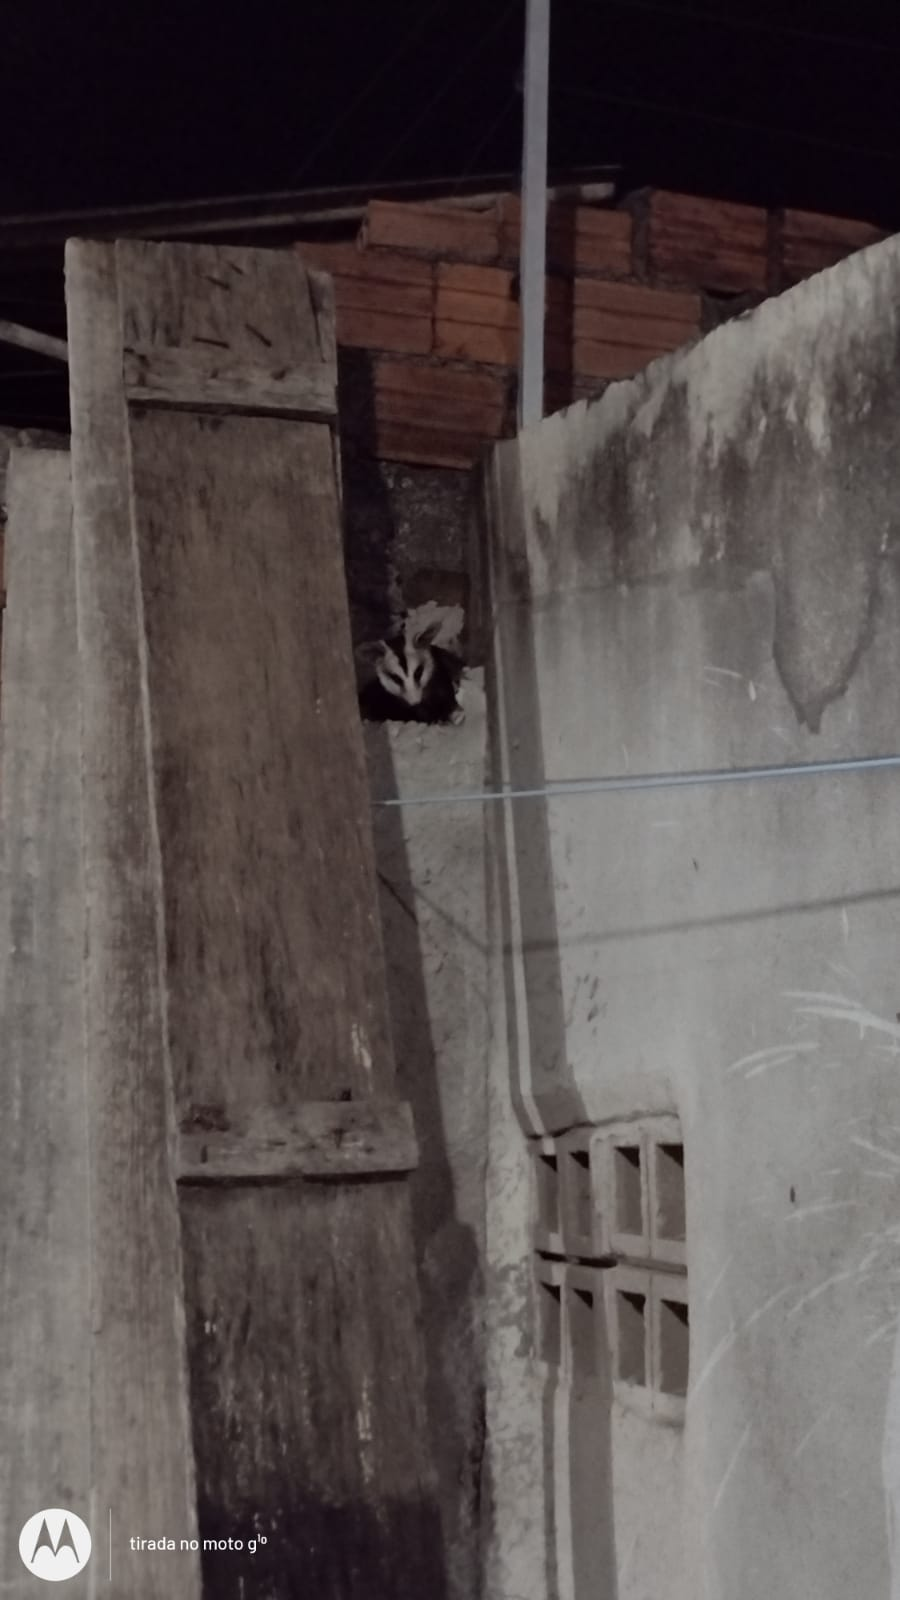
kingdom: Animalia
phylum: Chordata
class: Mammalia
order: Didelphimorphia
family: Didelphidae
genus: Didelphis
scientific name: Didelphis albiventris
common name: White-eared opossum
